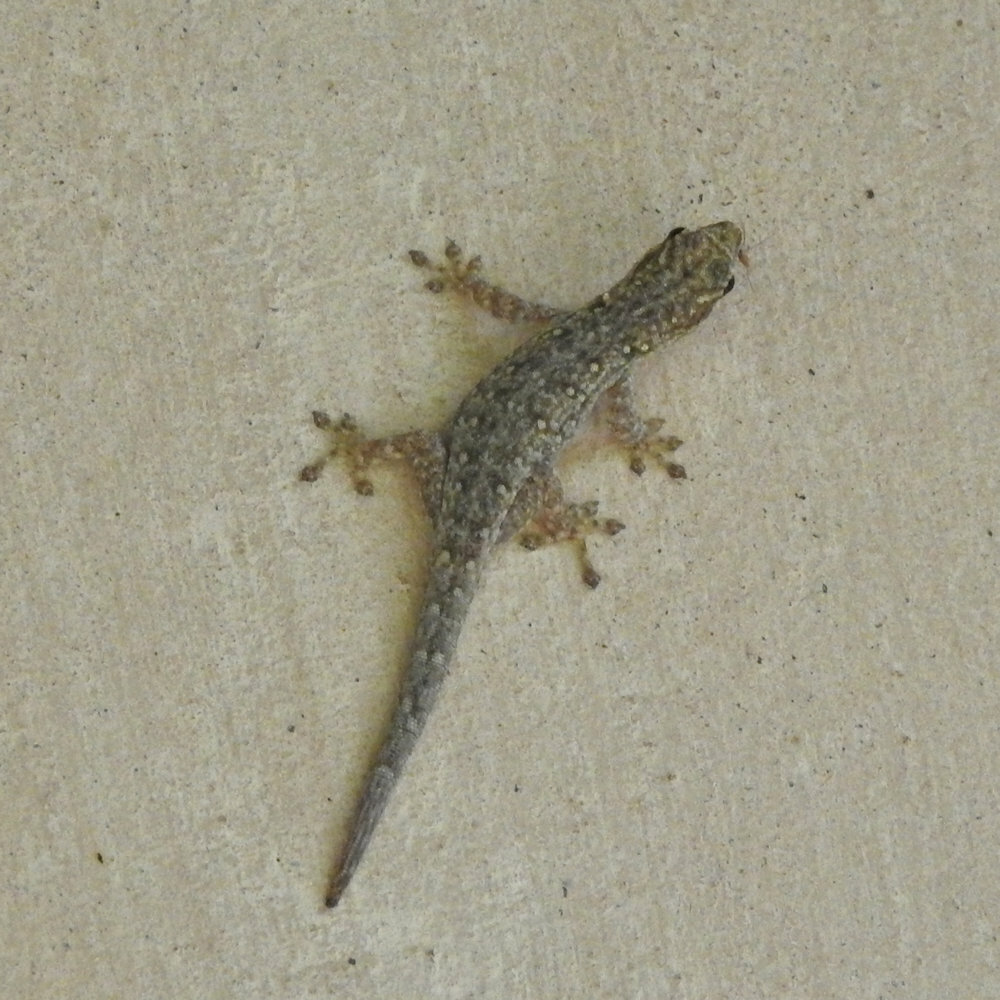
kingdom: Animalia
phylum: Chordata
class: Squamata
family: Gekkonidae
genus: Lygodactylus
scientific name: Lygodactylus chobiensis
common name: Okavango dwarf gecko
